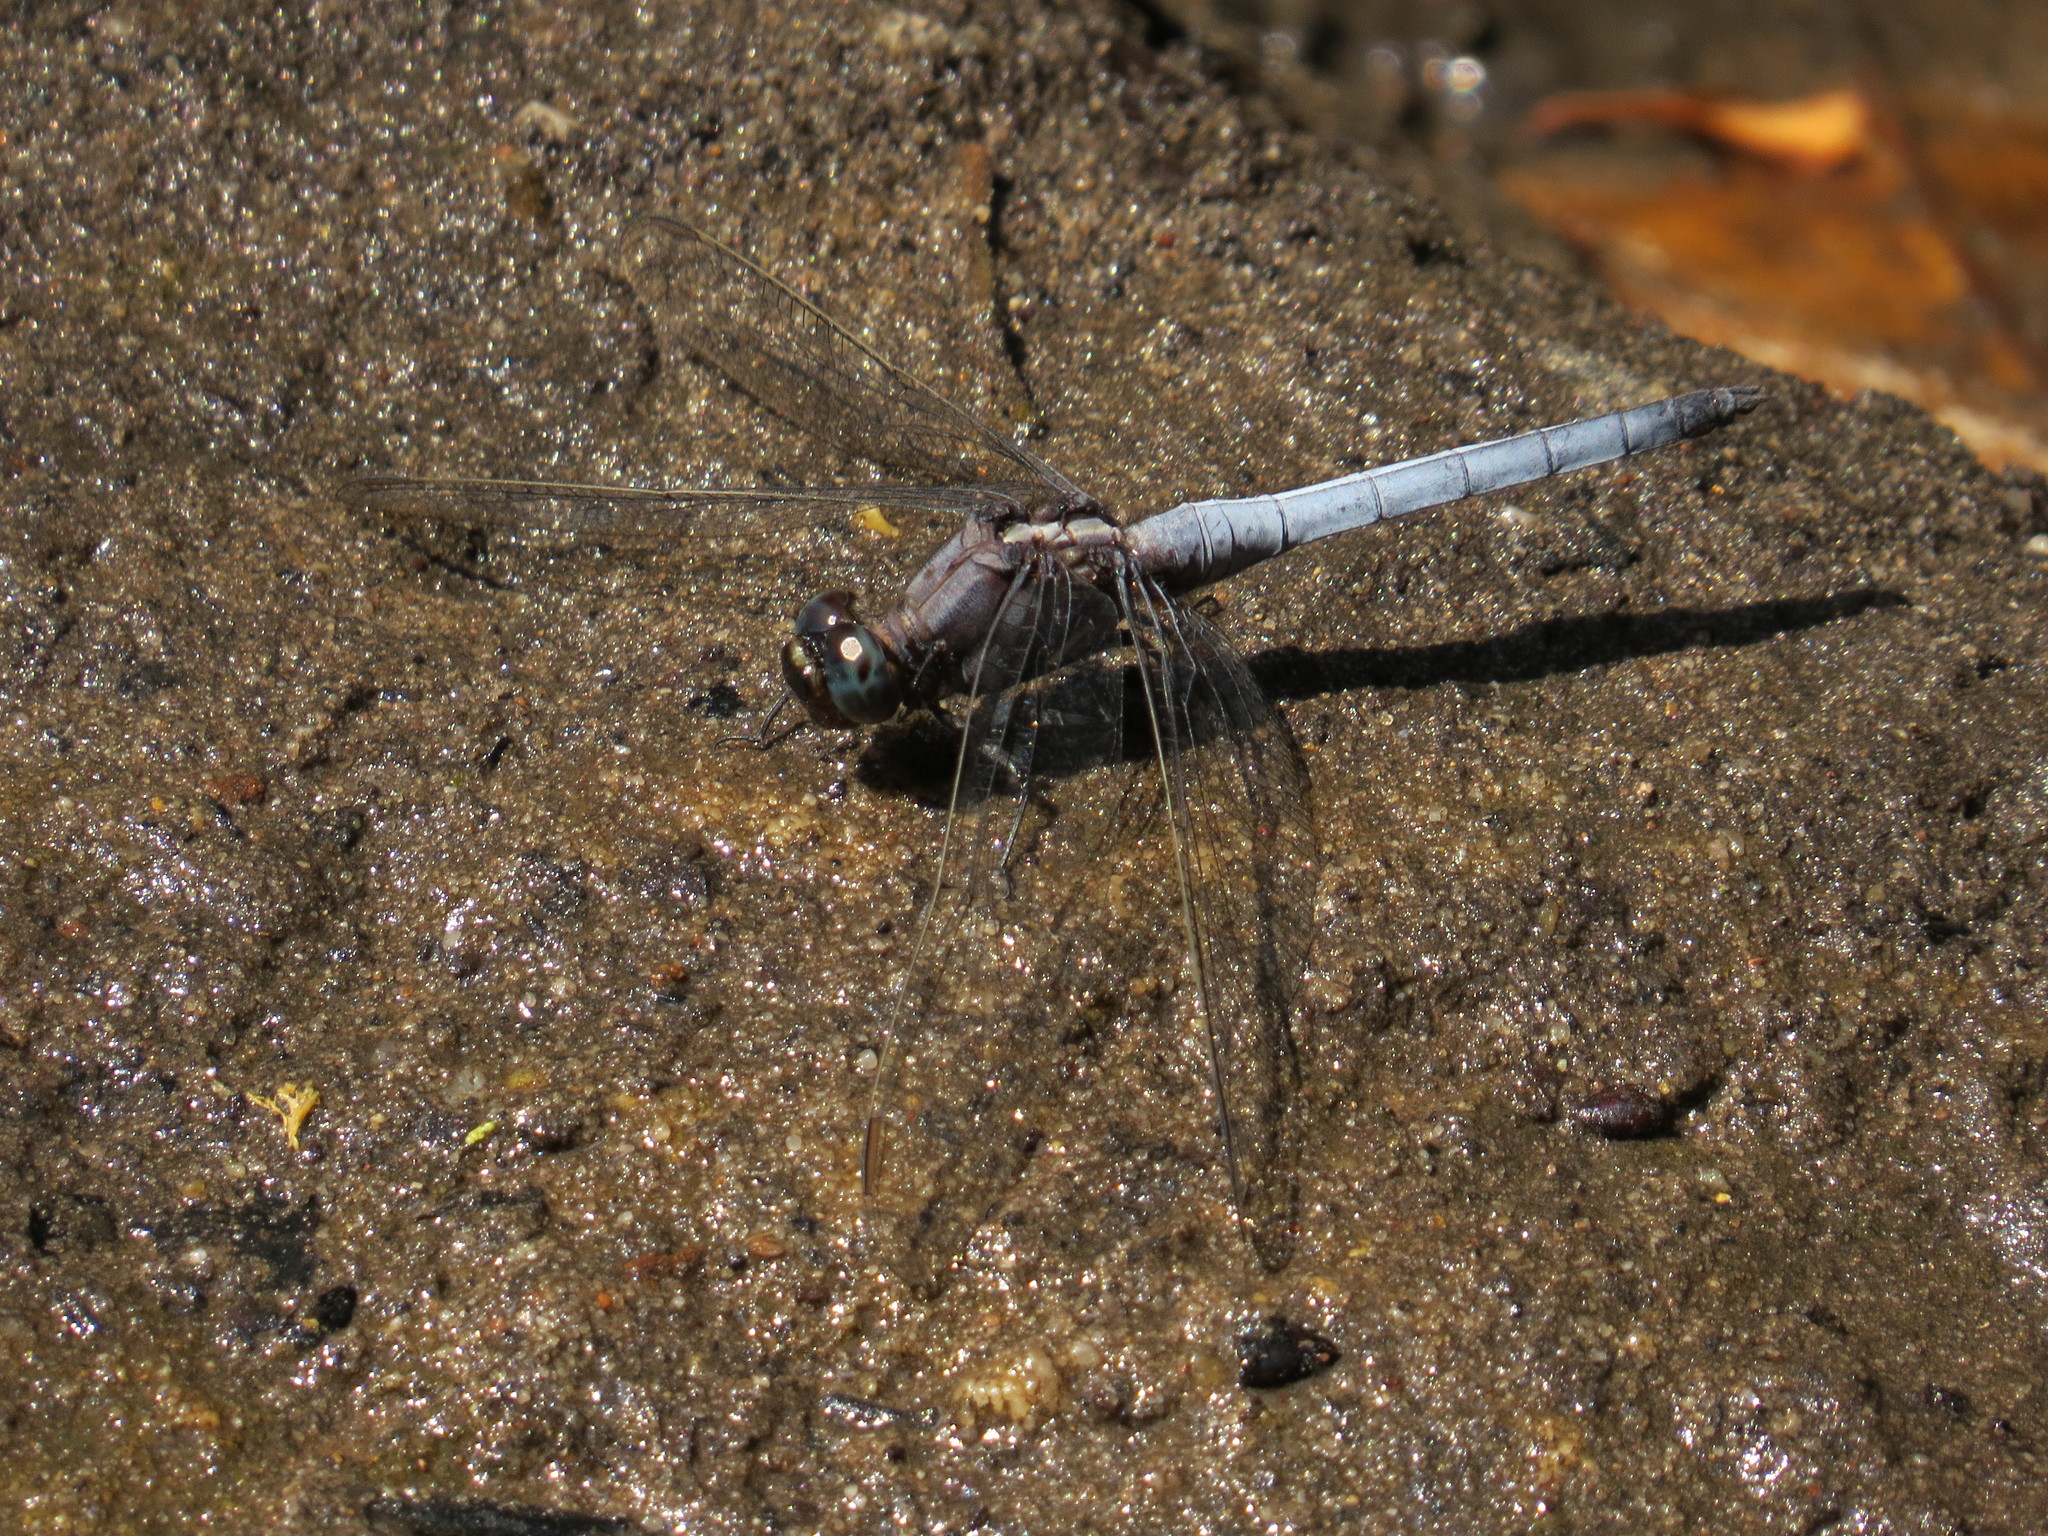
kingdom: Animalia
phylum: Arthropoda
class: Insecta
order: Odonata
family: Libellulidae
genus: Orthetrum
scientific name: Orthetrum glaucum
